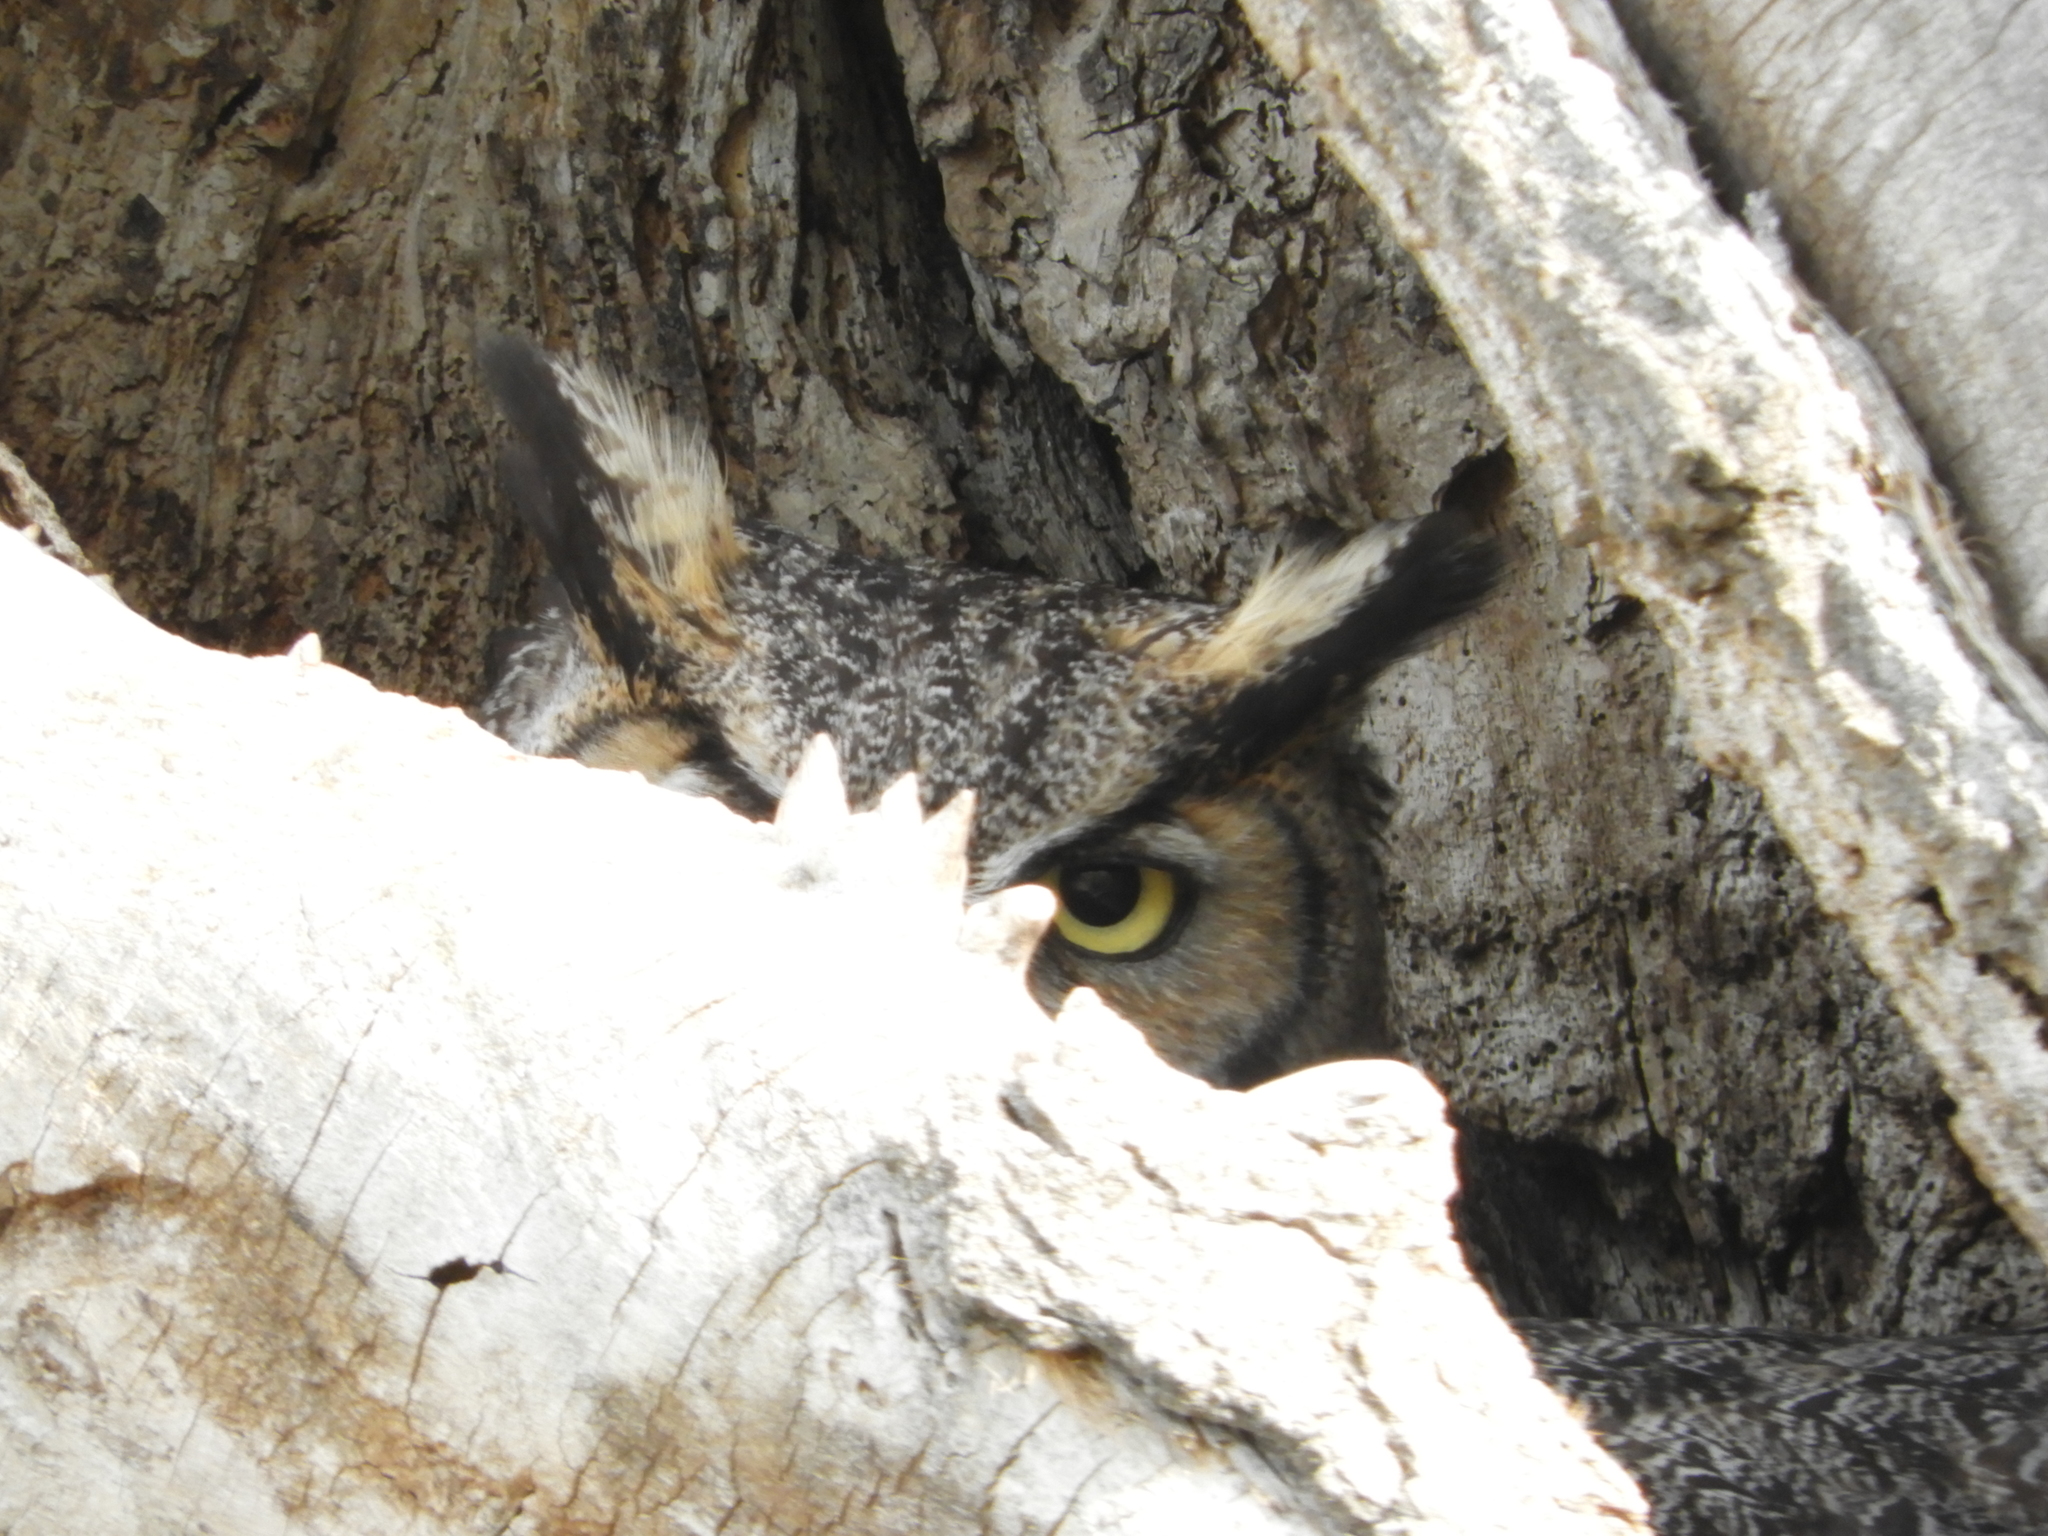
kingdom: Animalia
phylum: Chordata
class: Aves
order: Strigiformes
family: Strigidae
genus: Bubo
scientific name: Bubo virginianus
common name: Great horned owl
